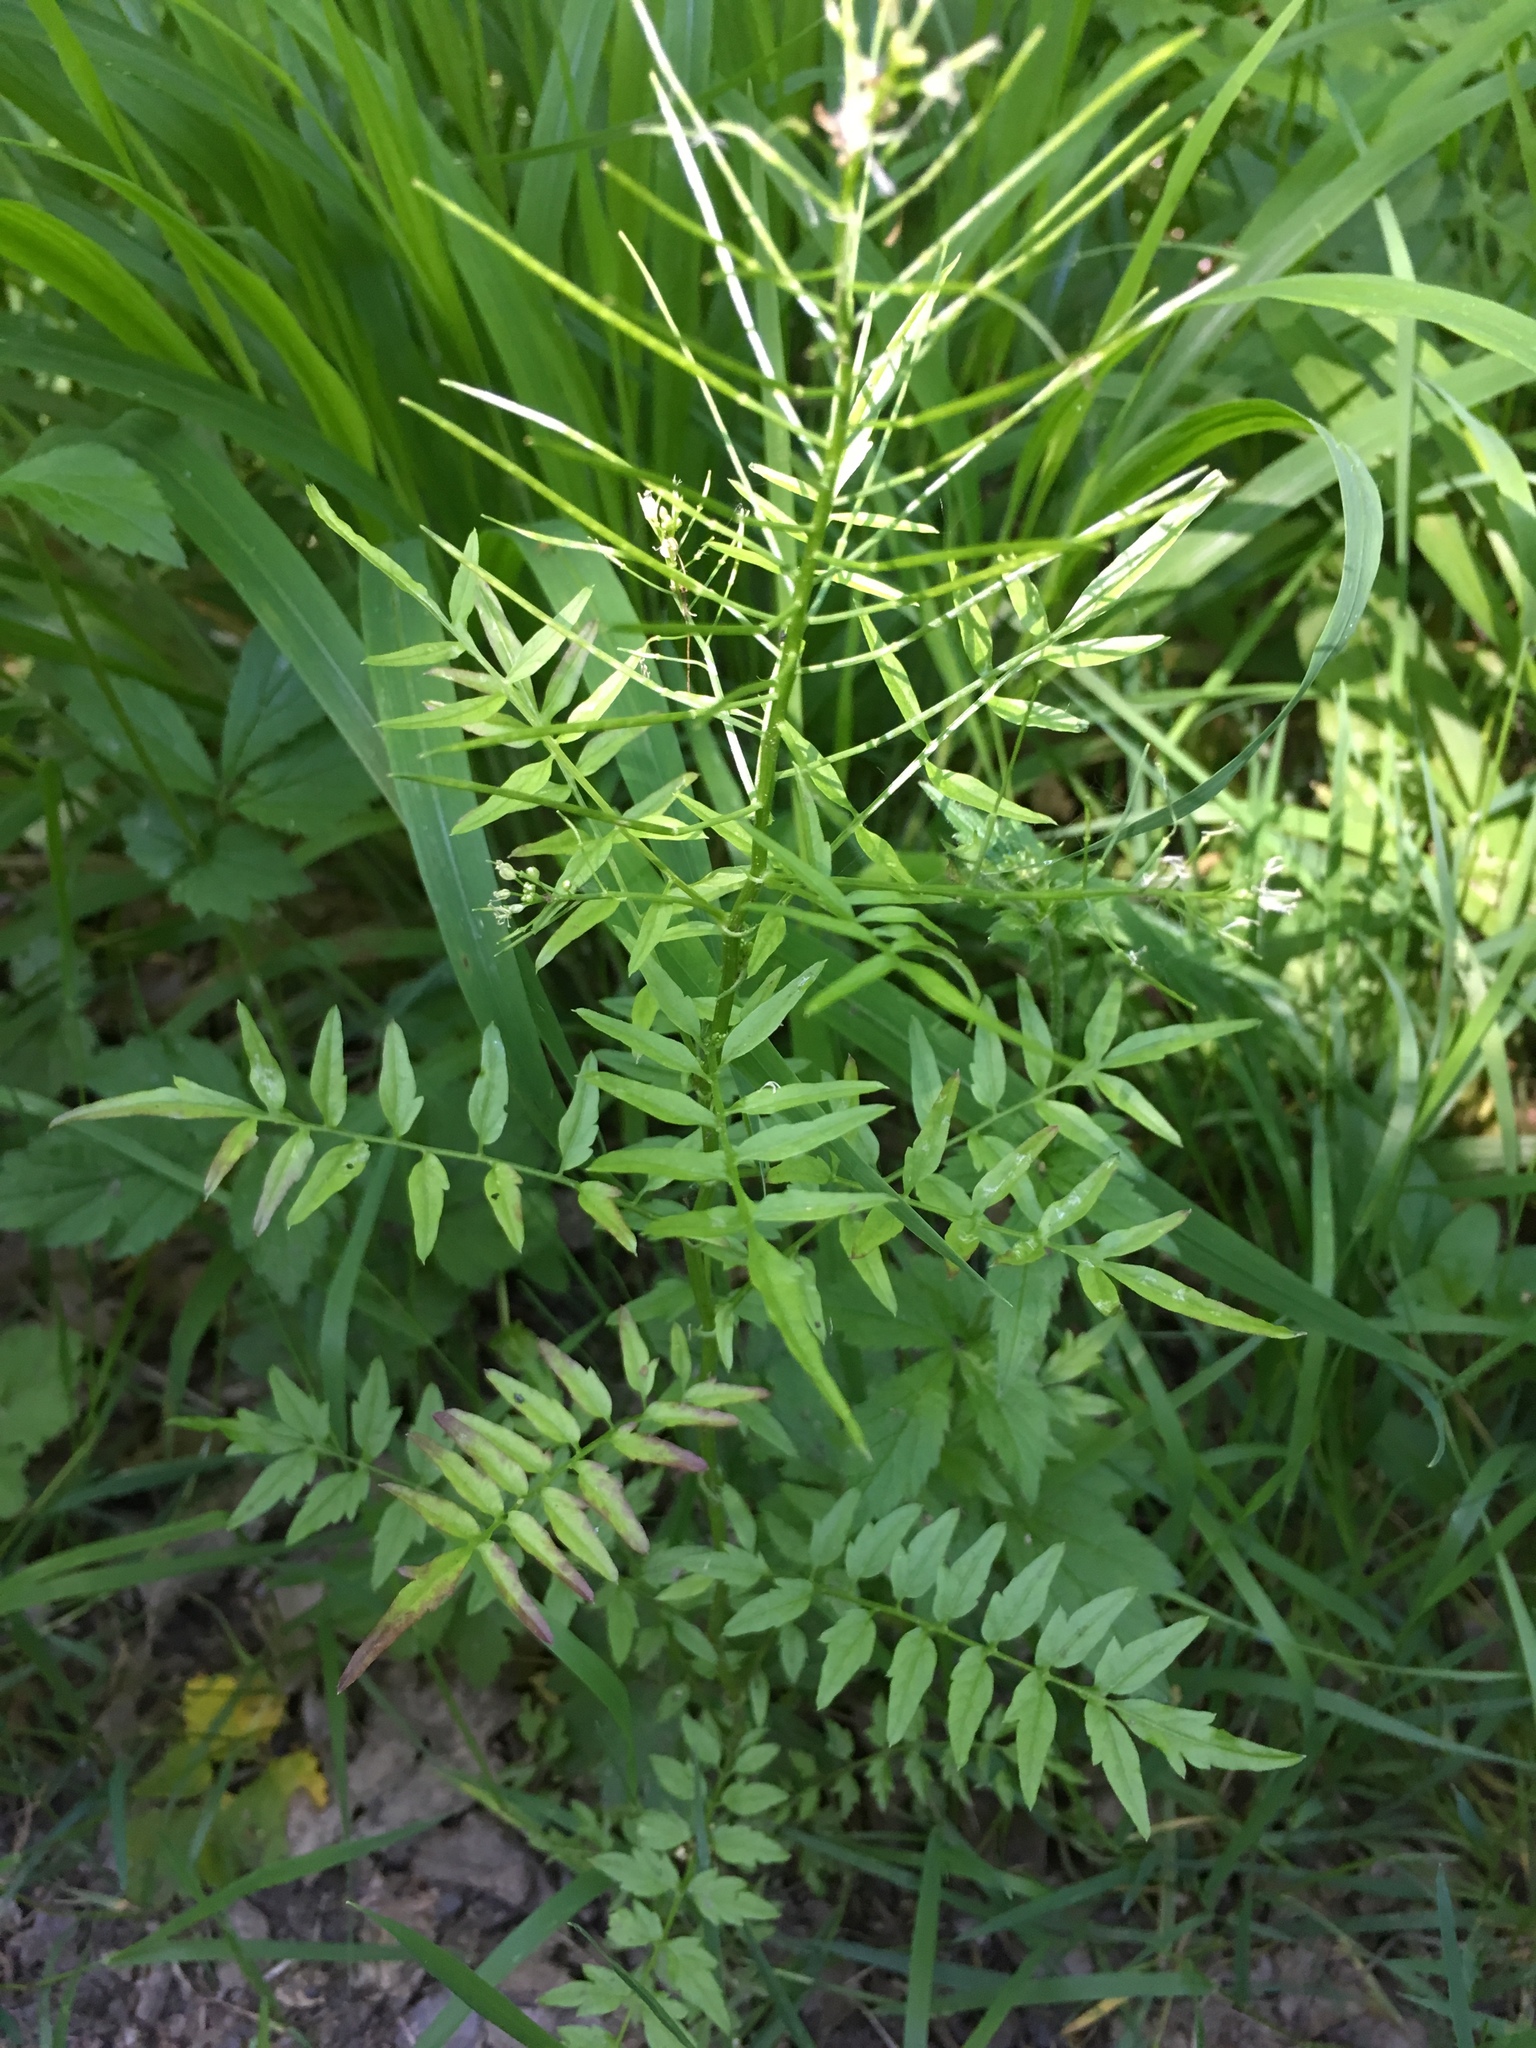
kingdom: Plantae
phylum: Tracheophyta
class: Magnoliopsida
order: Brassicales
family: Brassicaceae
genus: Cardamine
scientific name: Cardamine impatiens
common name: Narrow-leaved bitter-cress
